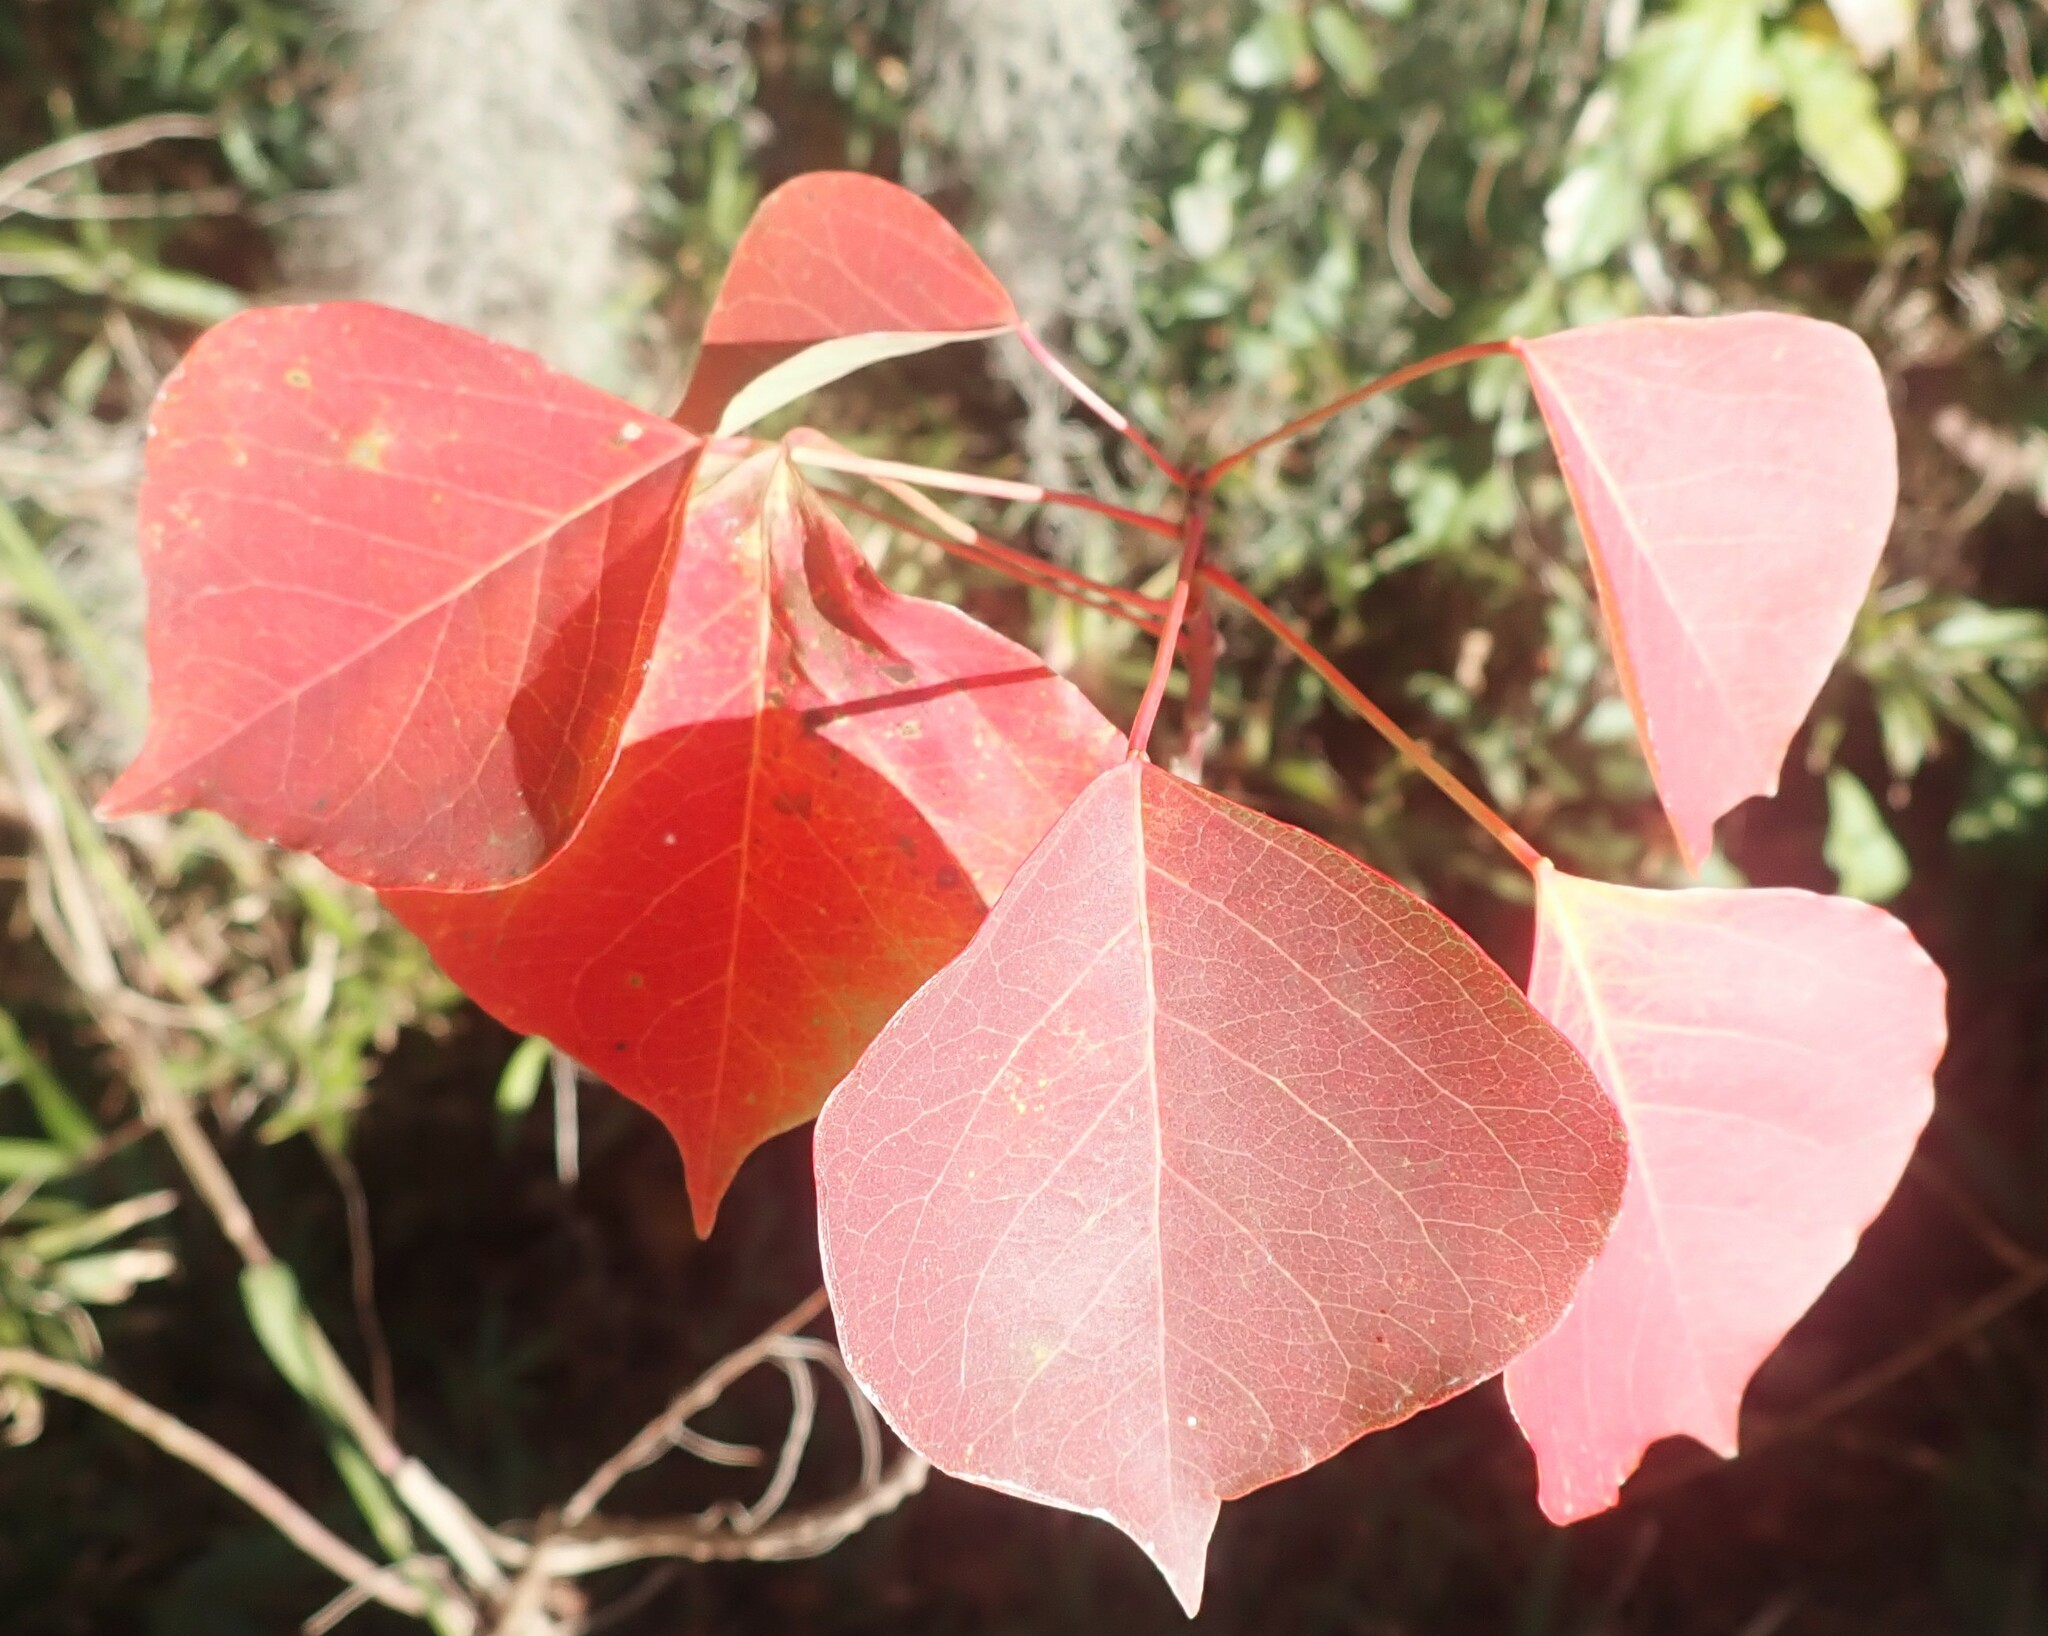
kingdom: Plantae
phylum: Tracheophyta
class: Magnoliopsida
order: Malpighiales
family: Euphorbiaceae
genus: Triadica
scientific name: Triadica sebifera
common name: Chinese tallow
